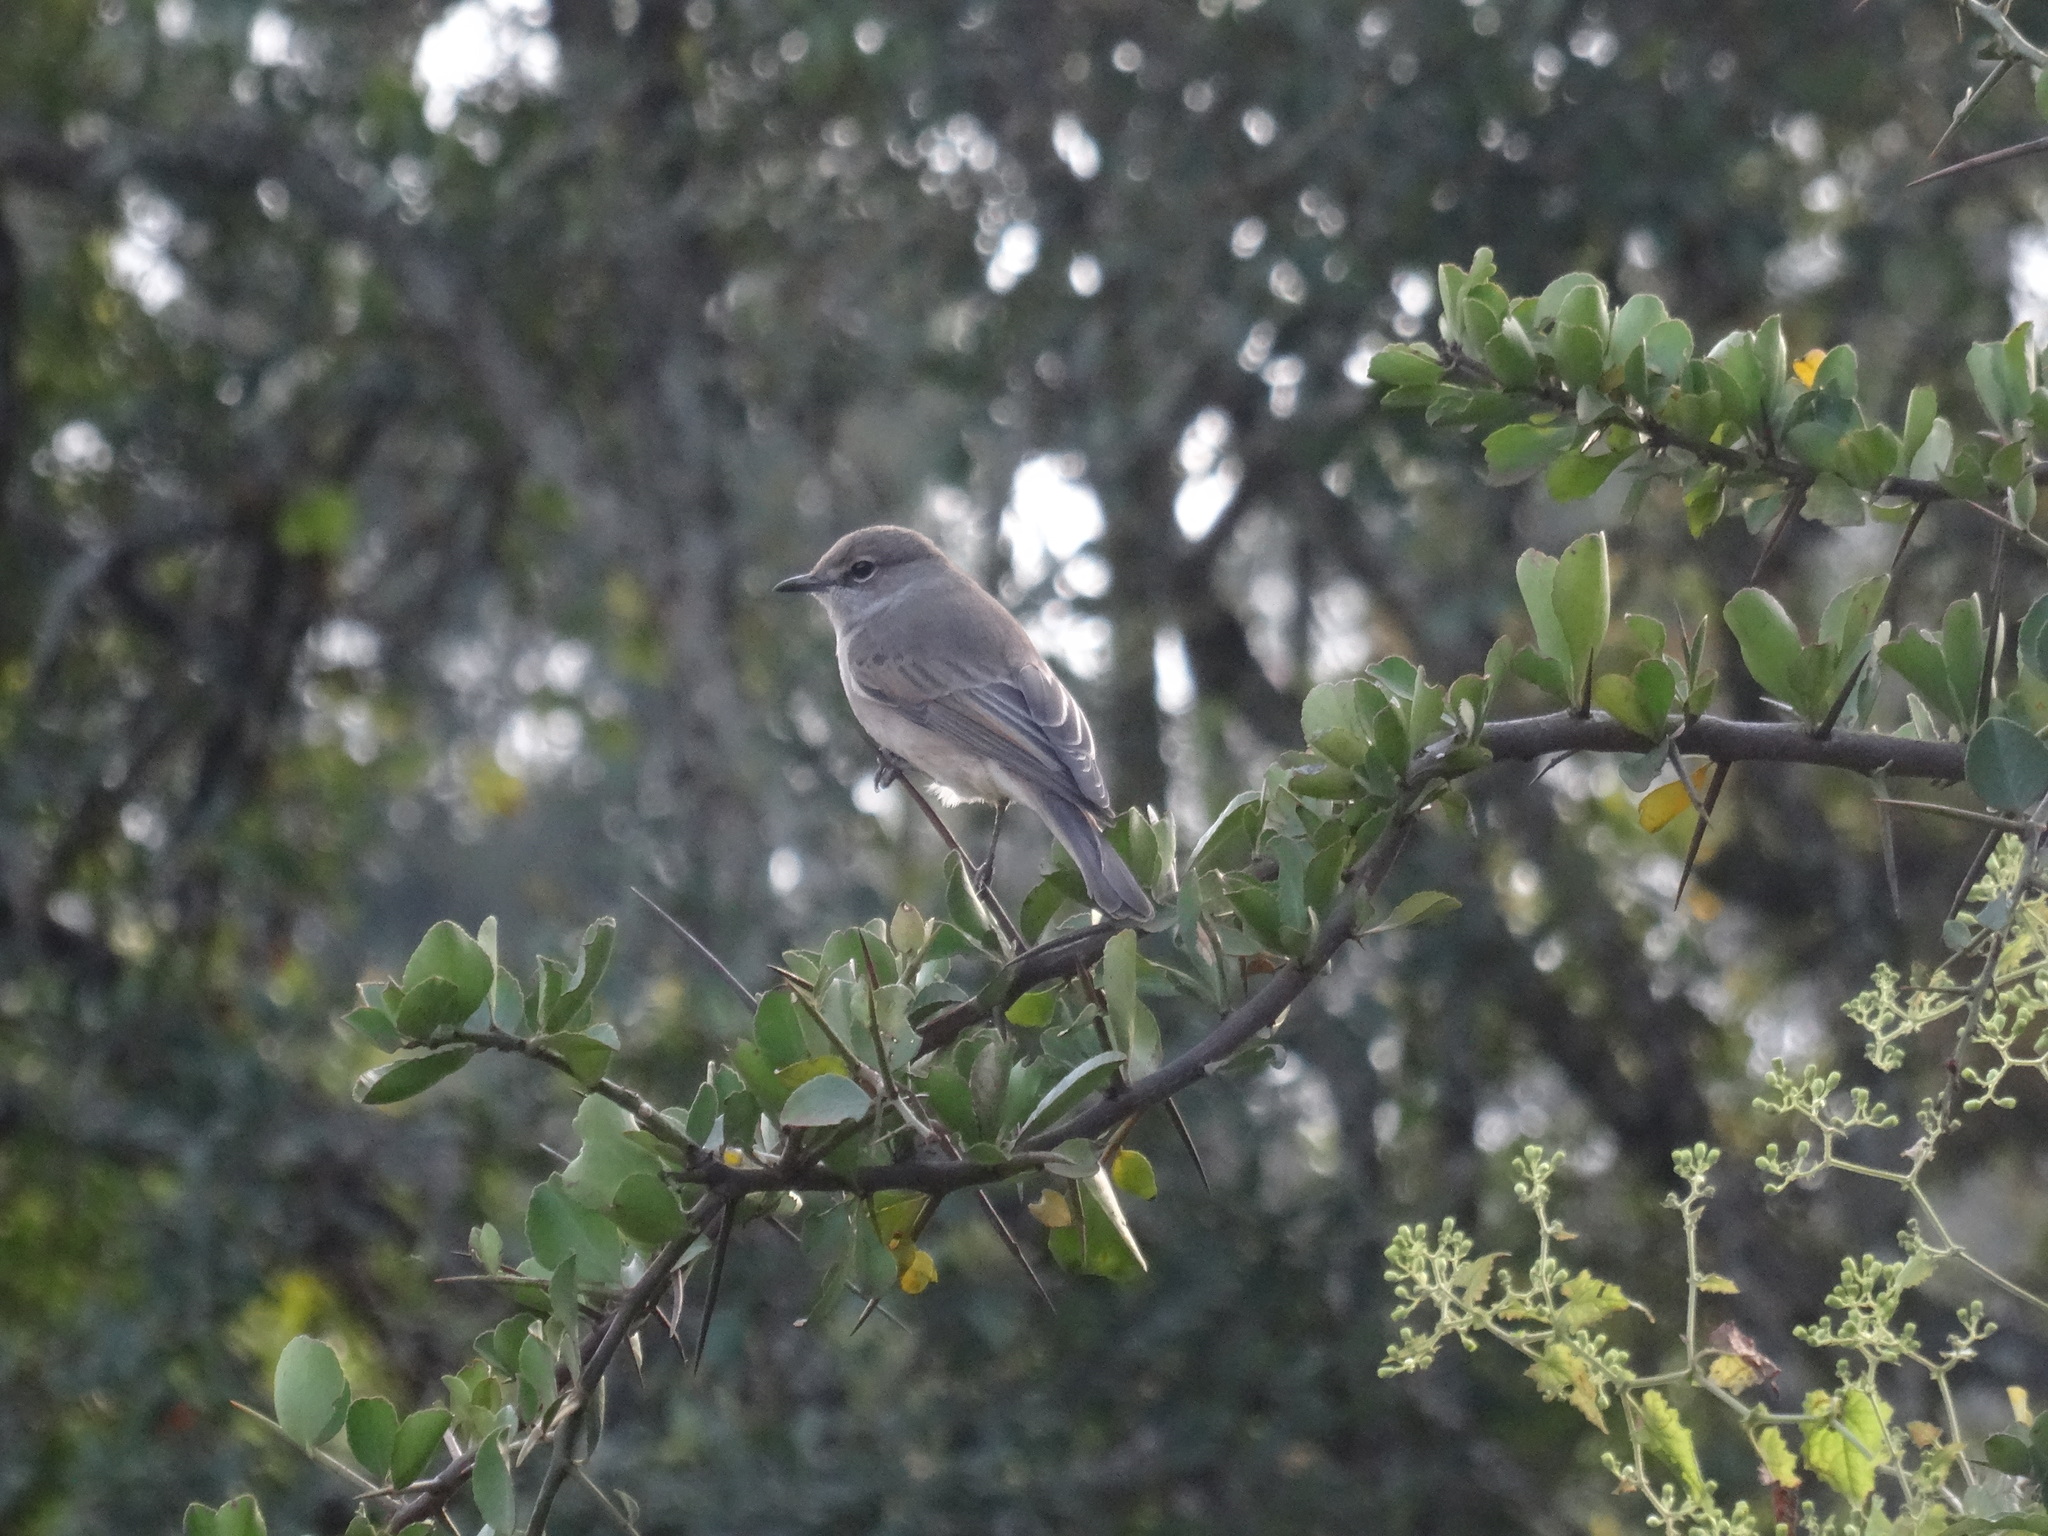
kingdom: Animalia
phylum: Chordata
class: Aves
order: Passeriformes
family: Muscicapidae
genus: Bradornis
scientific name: Bradornis pallidus
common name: Pale flycatcher
